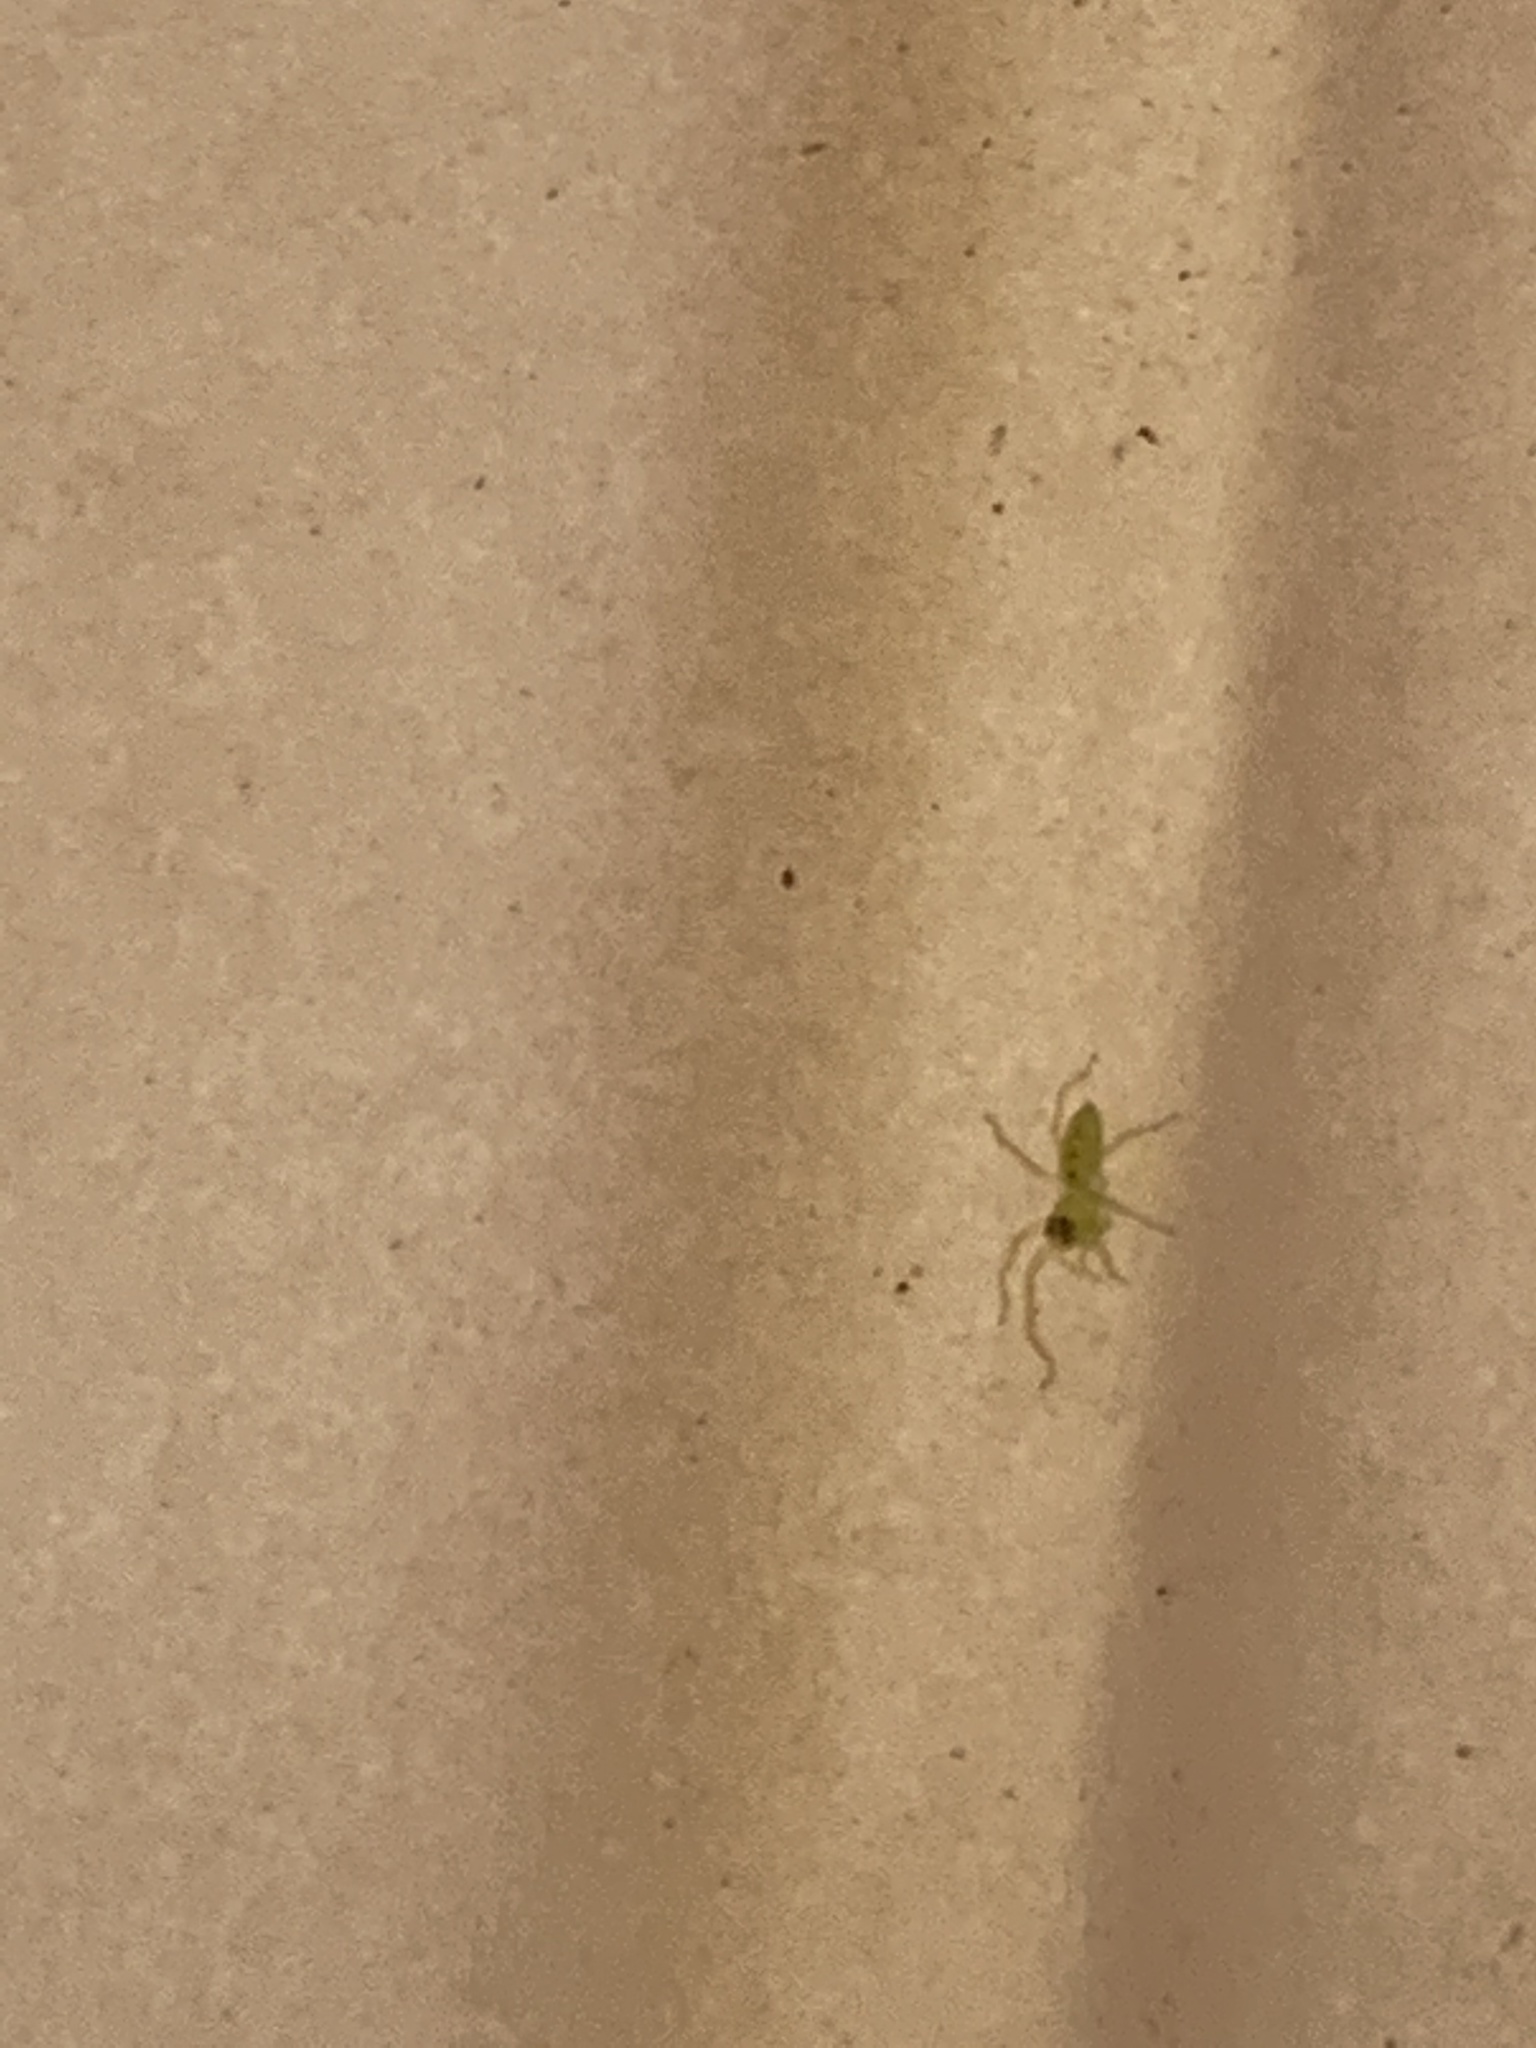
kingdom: Animalia
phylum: Arthropoda
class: Arachnida
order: Araneae
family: Salticidae
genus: Lyssomanes
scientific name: Lyssomanes viridis
